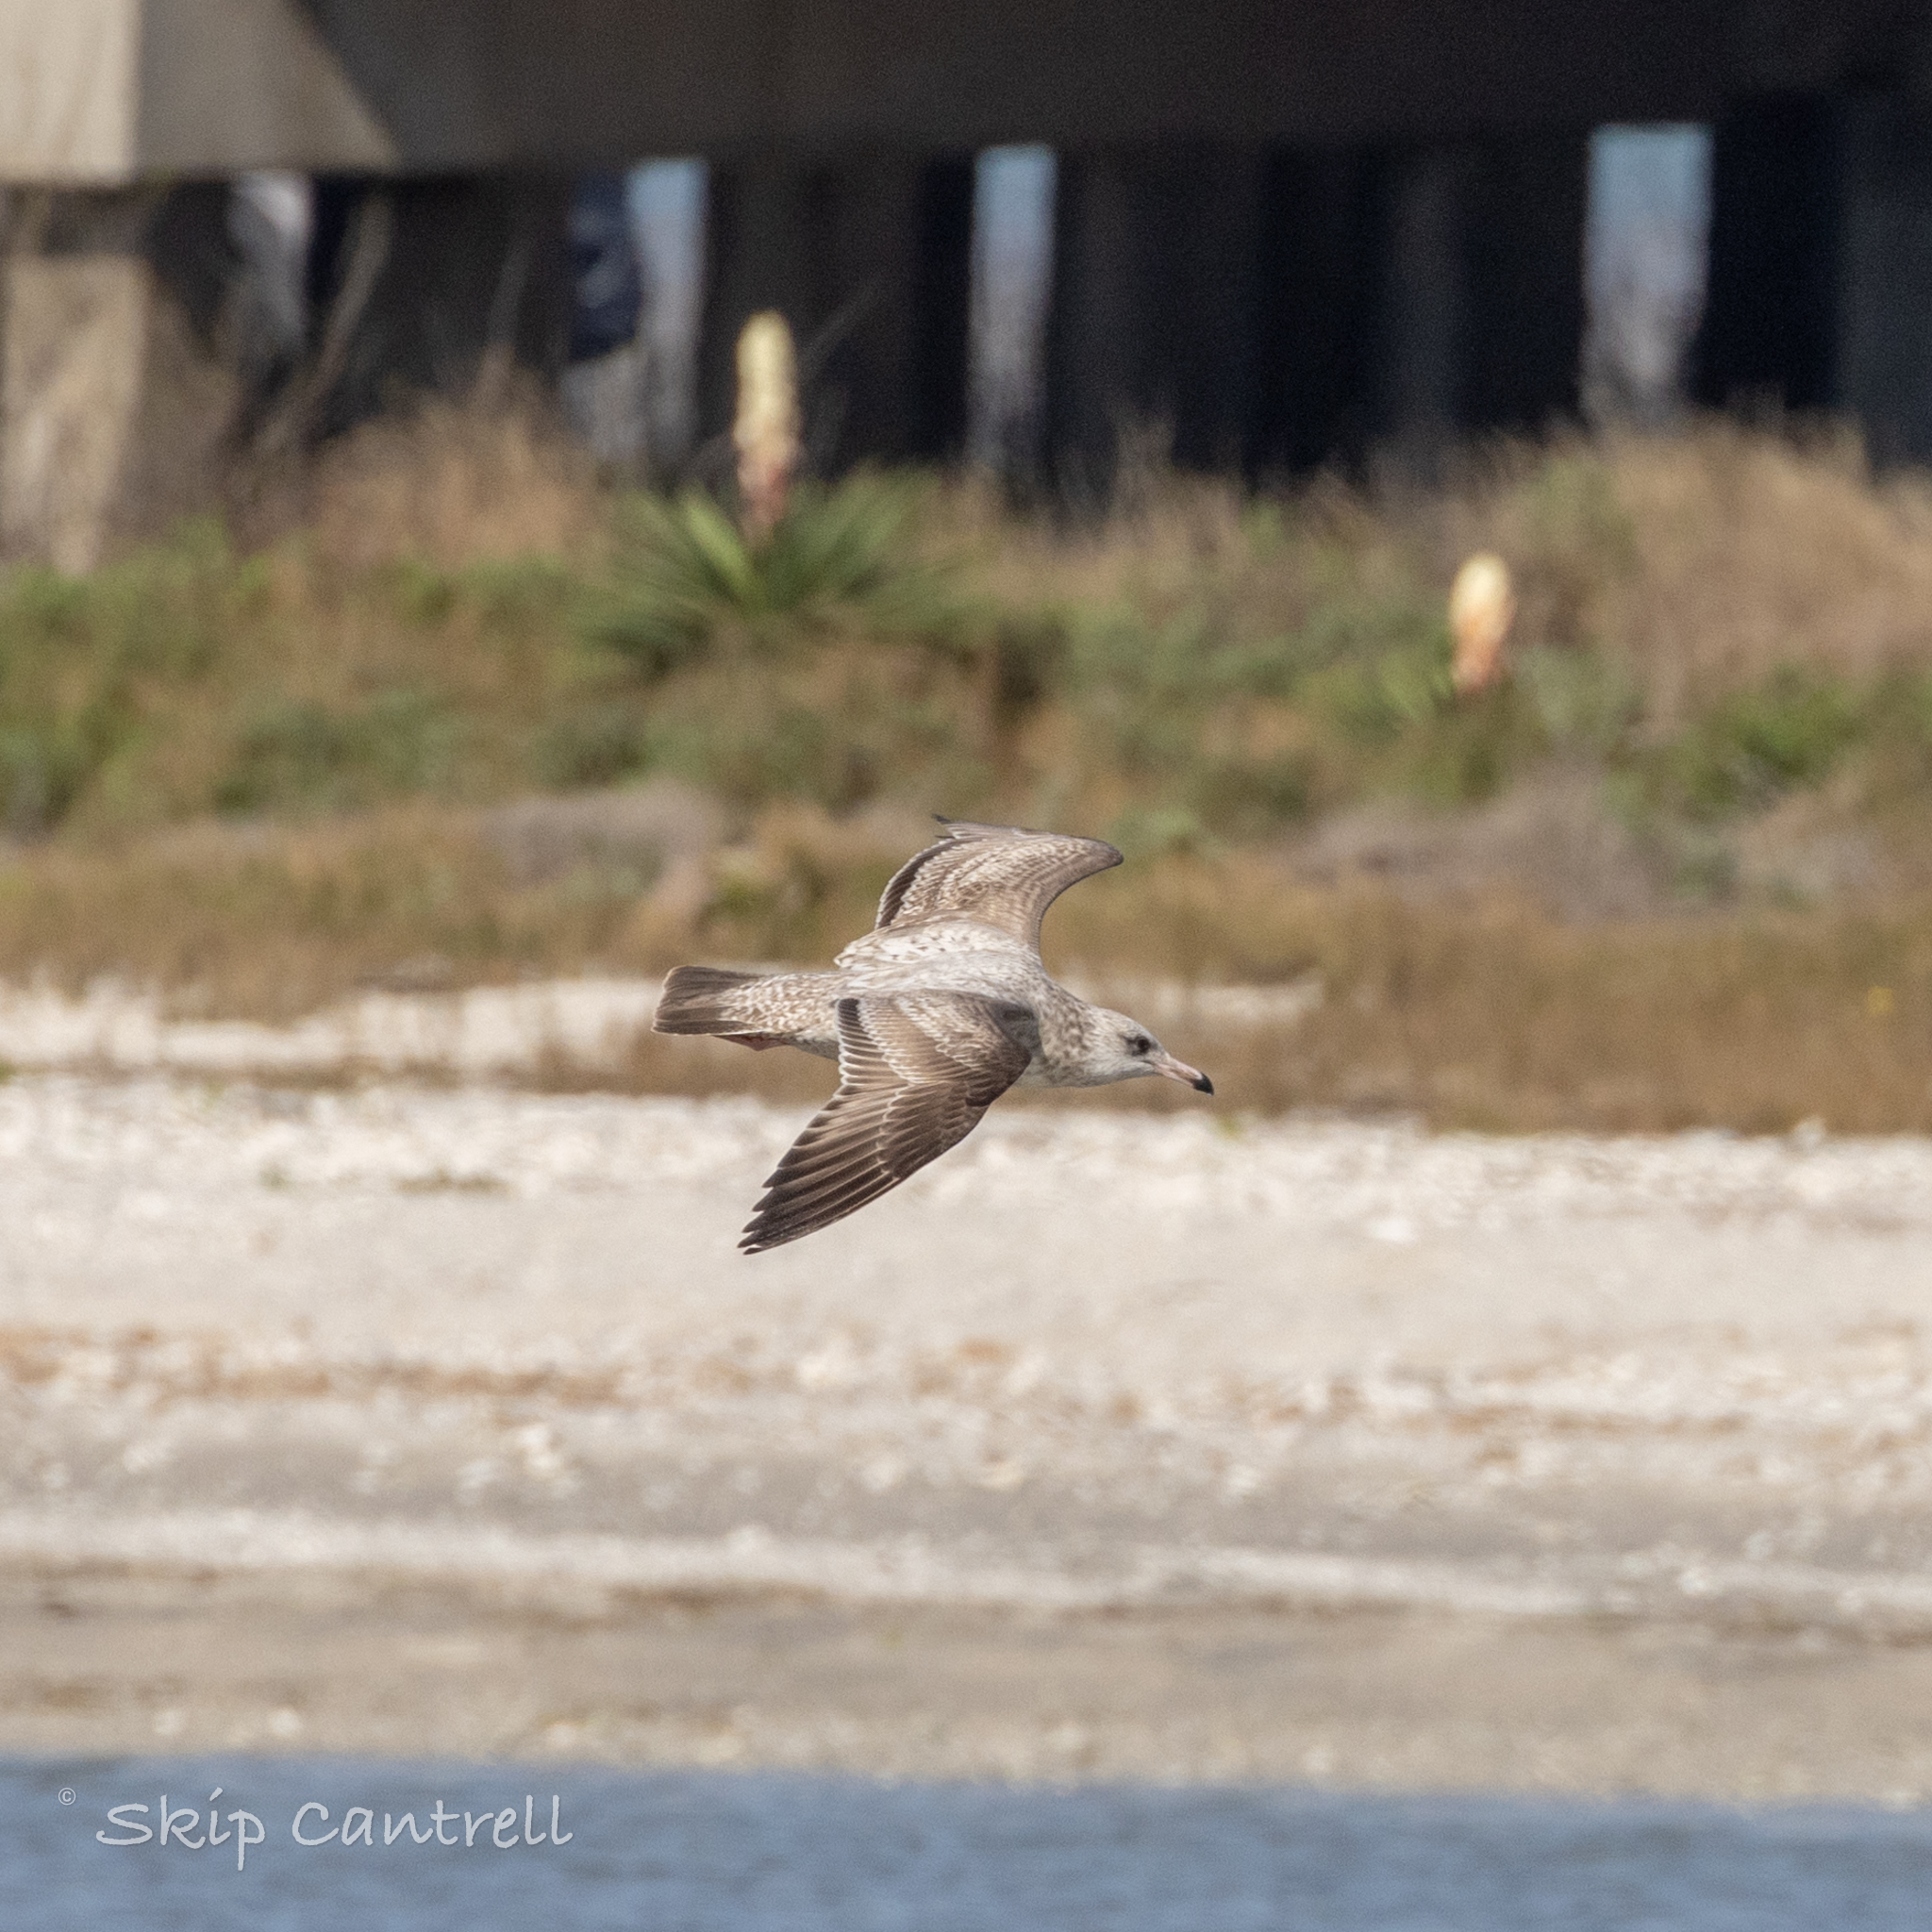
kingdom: Animalia
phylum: Chordata
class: Aves
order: Charadriiformes
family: Laridae
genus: Larus
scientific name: Larus argentatus
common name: Herring gull
